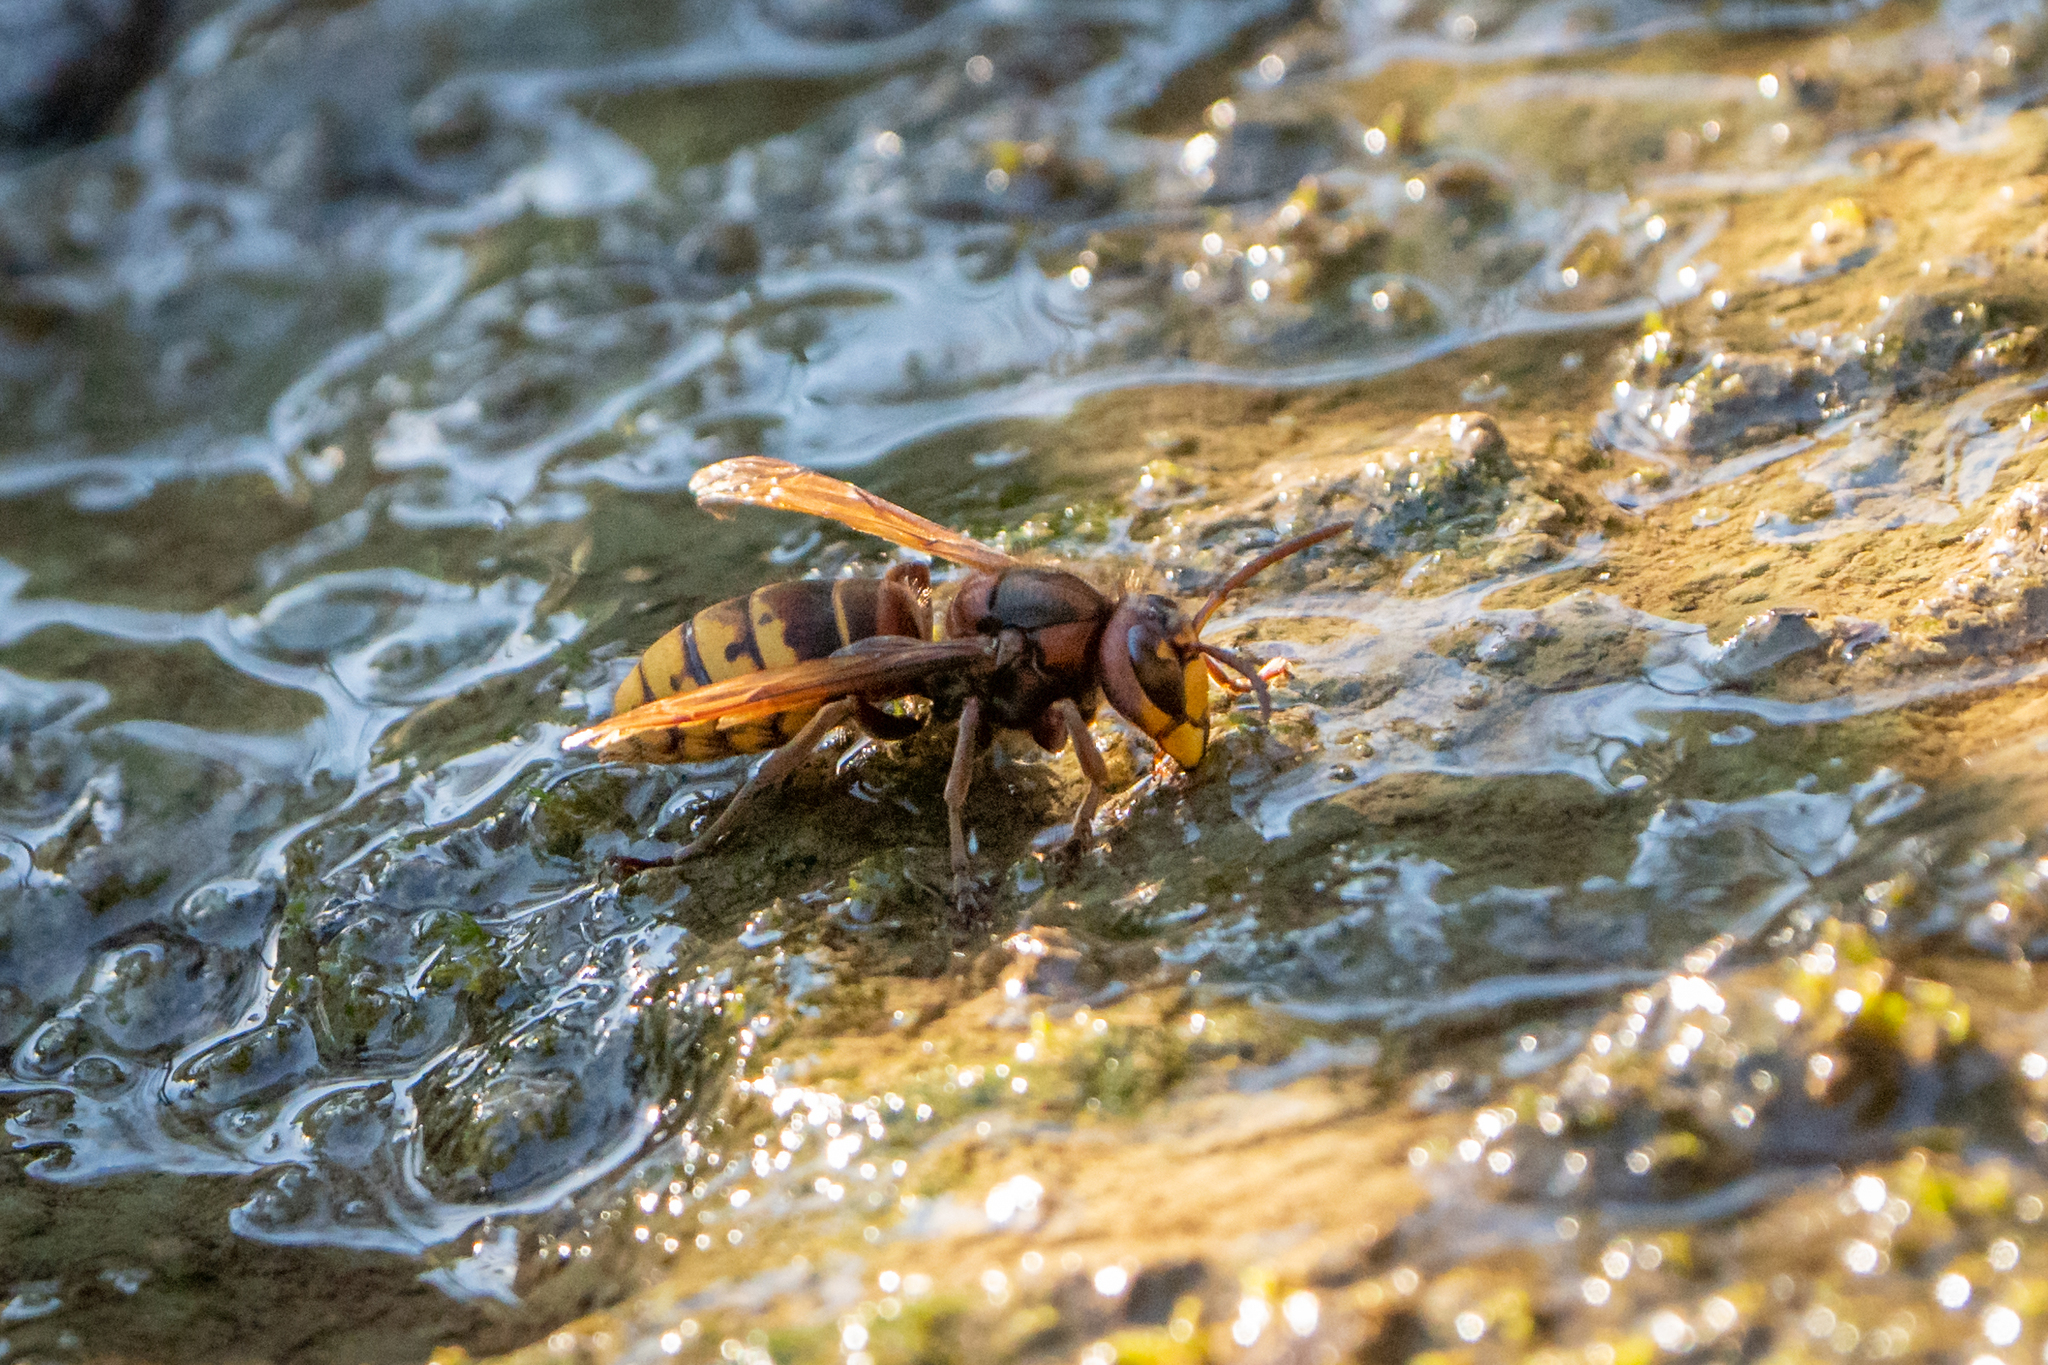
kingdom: Animalia
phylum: Arthropoda
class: Insecta
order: Hymenoptera
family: Vespidae
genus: Vespa
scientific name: Vespa crabro
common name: Hornet
